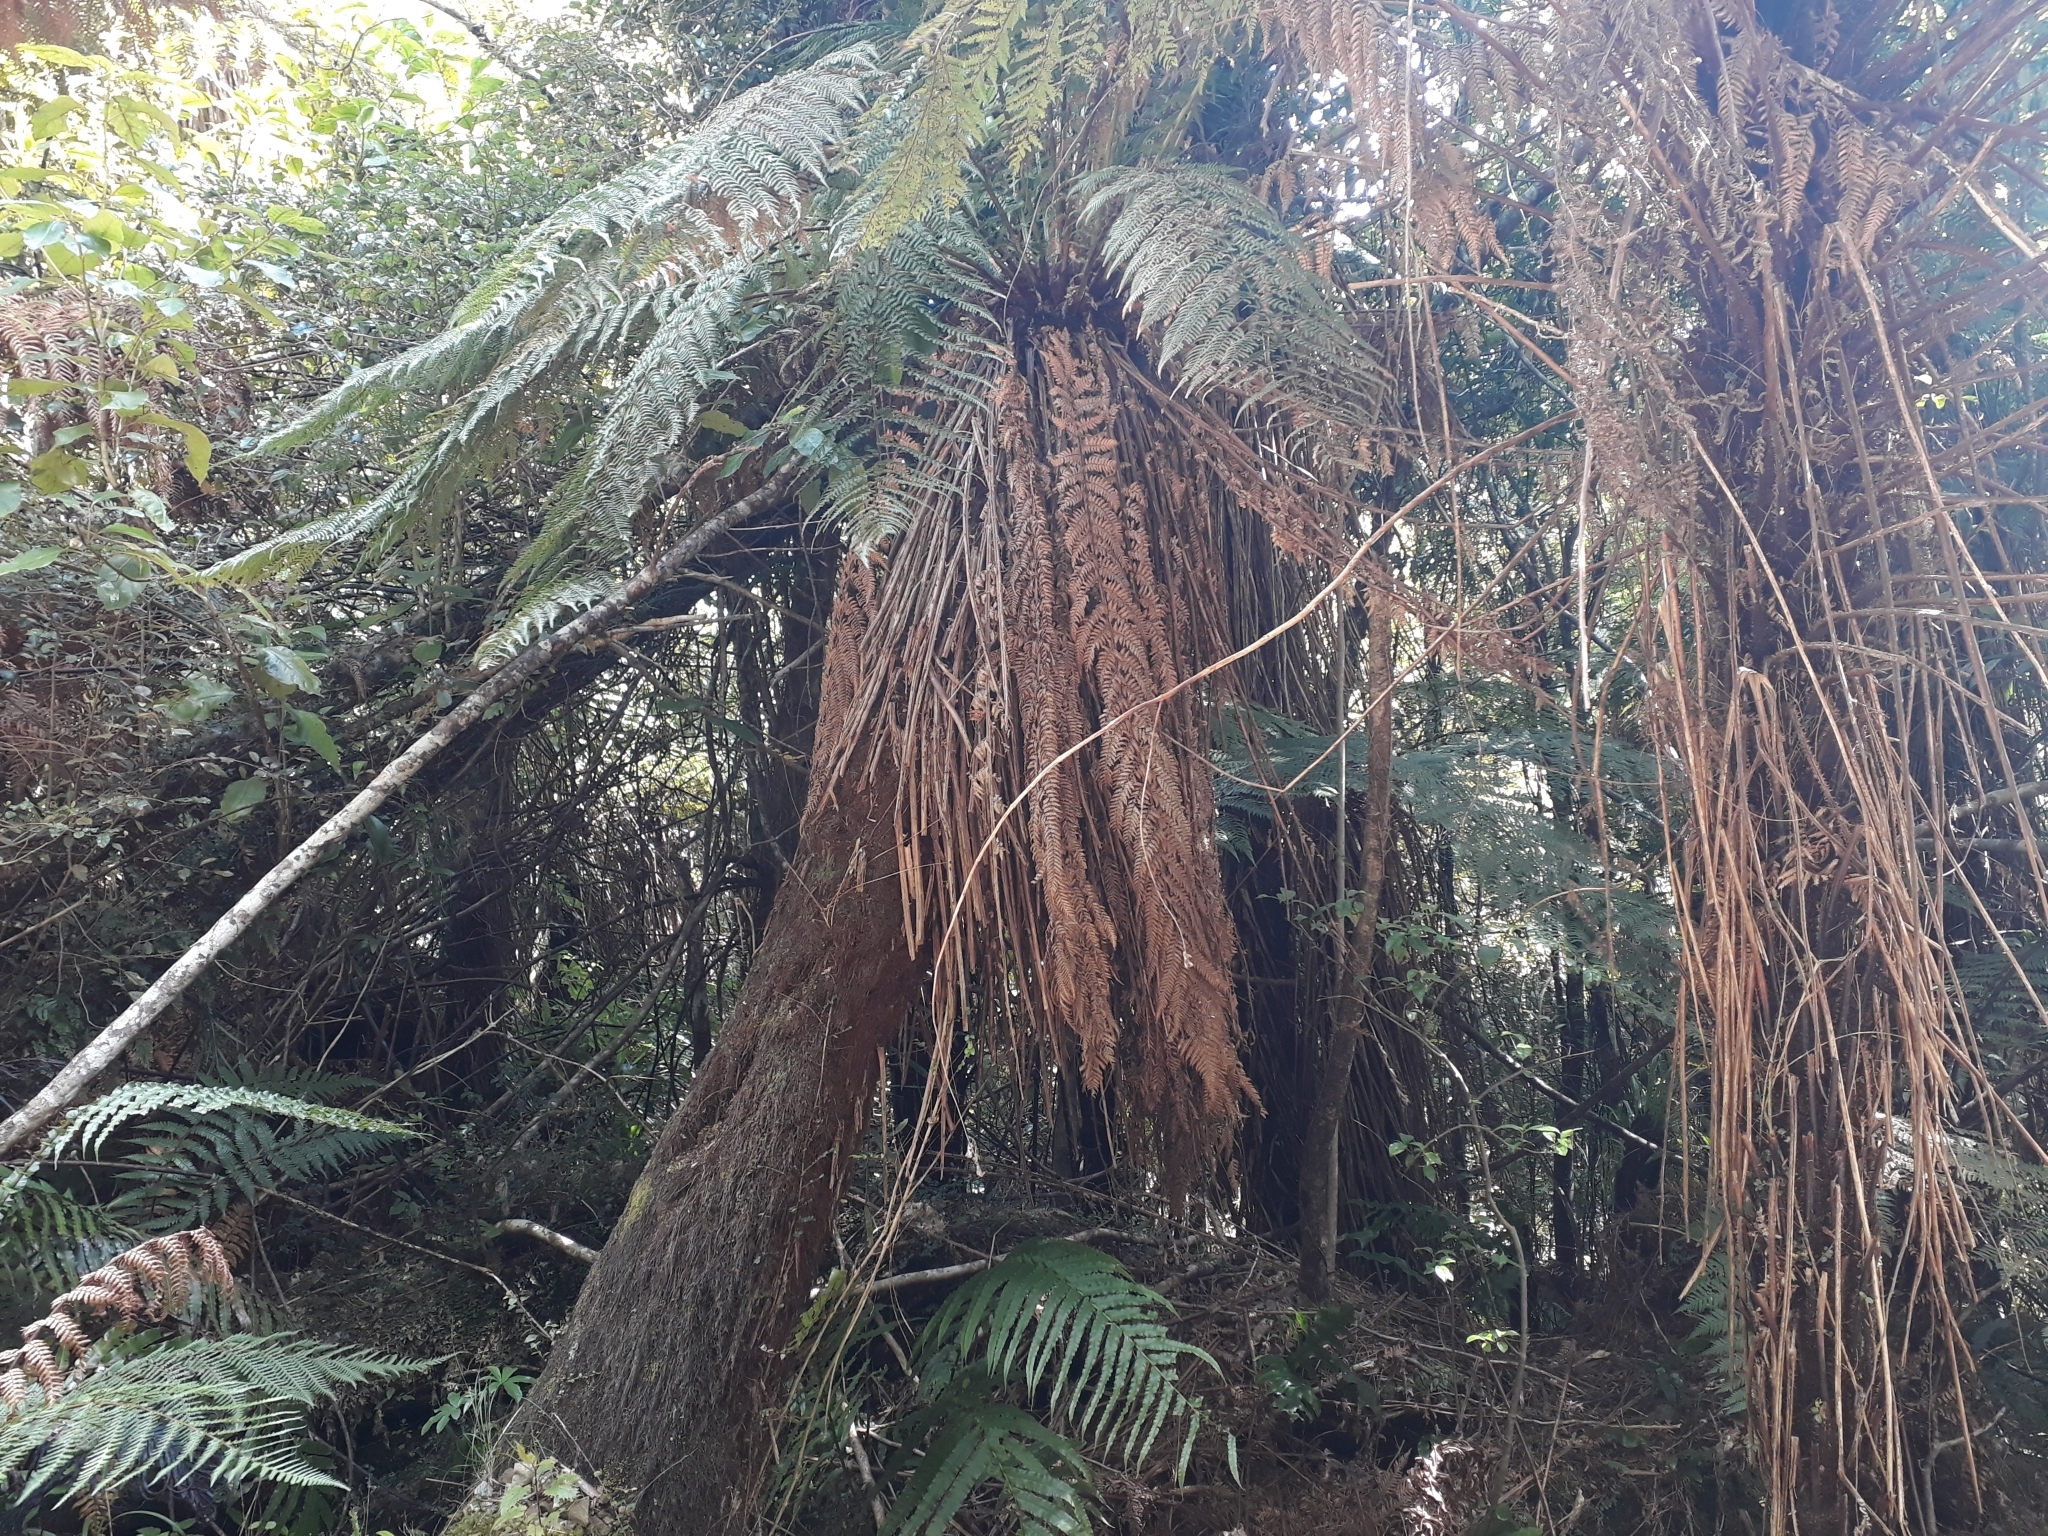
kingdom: Plantae
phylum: Tracheophyta
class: Polypodiopsida
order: Cyatheales
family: Dicksoniaceae
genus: Dicksonia
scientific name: Dicksonia fibrosa
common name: Golden tree fern
